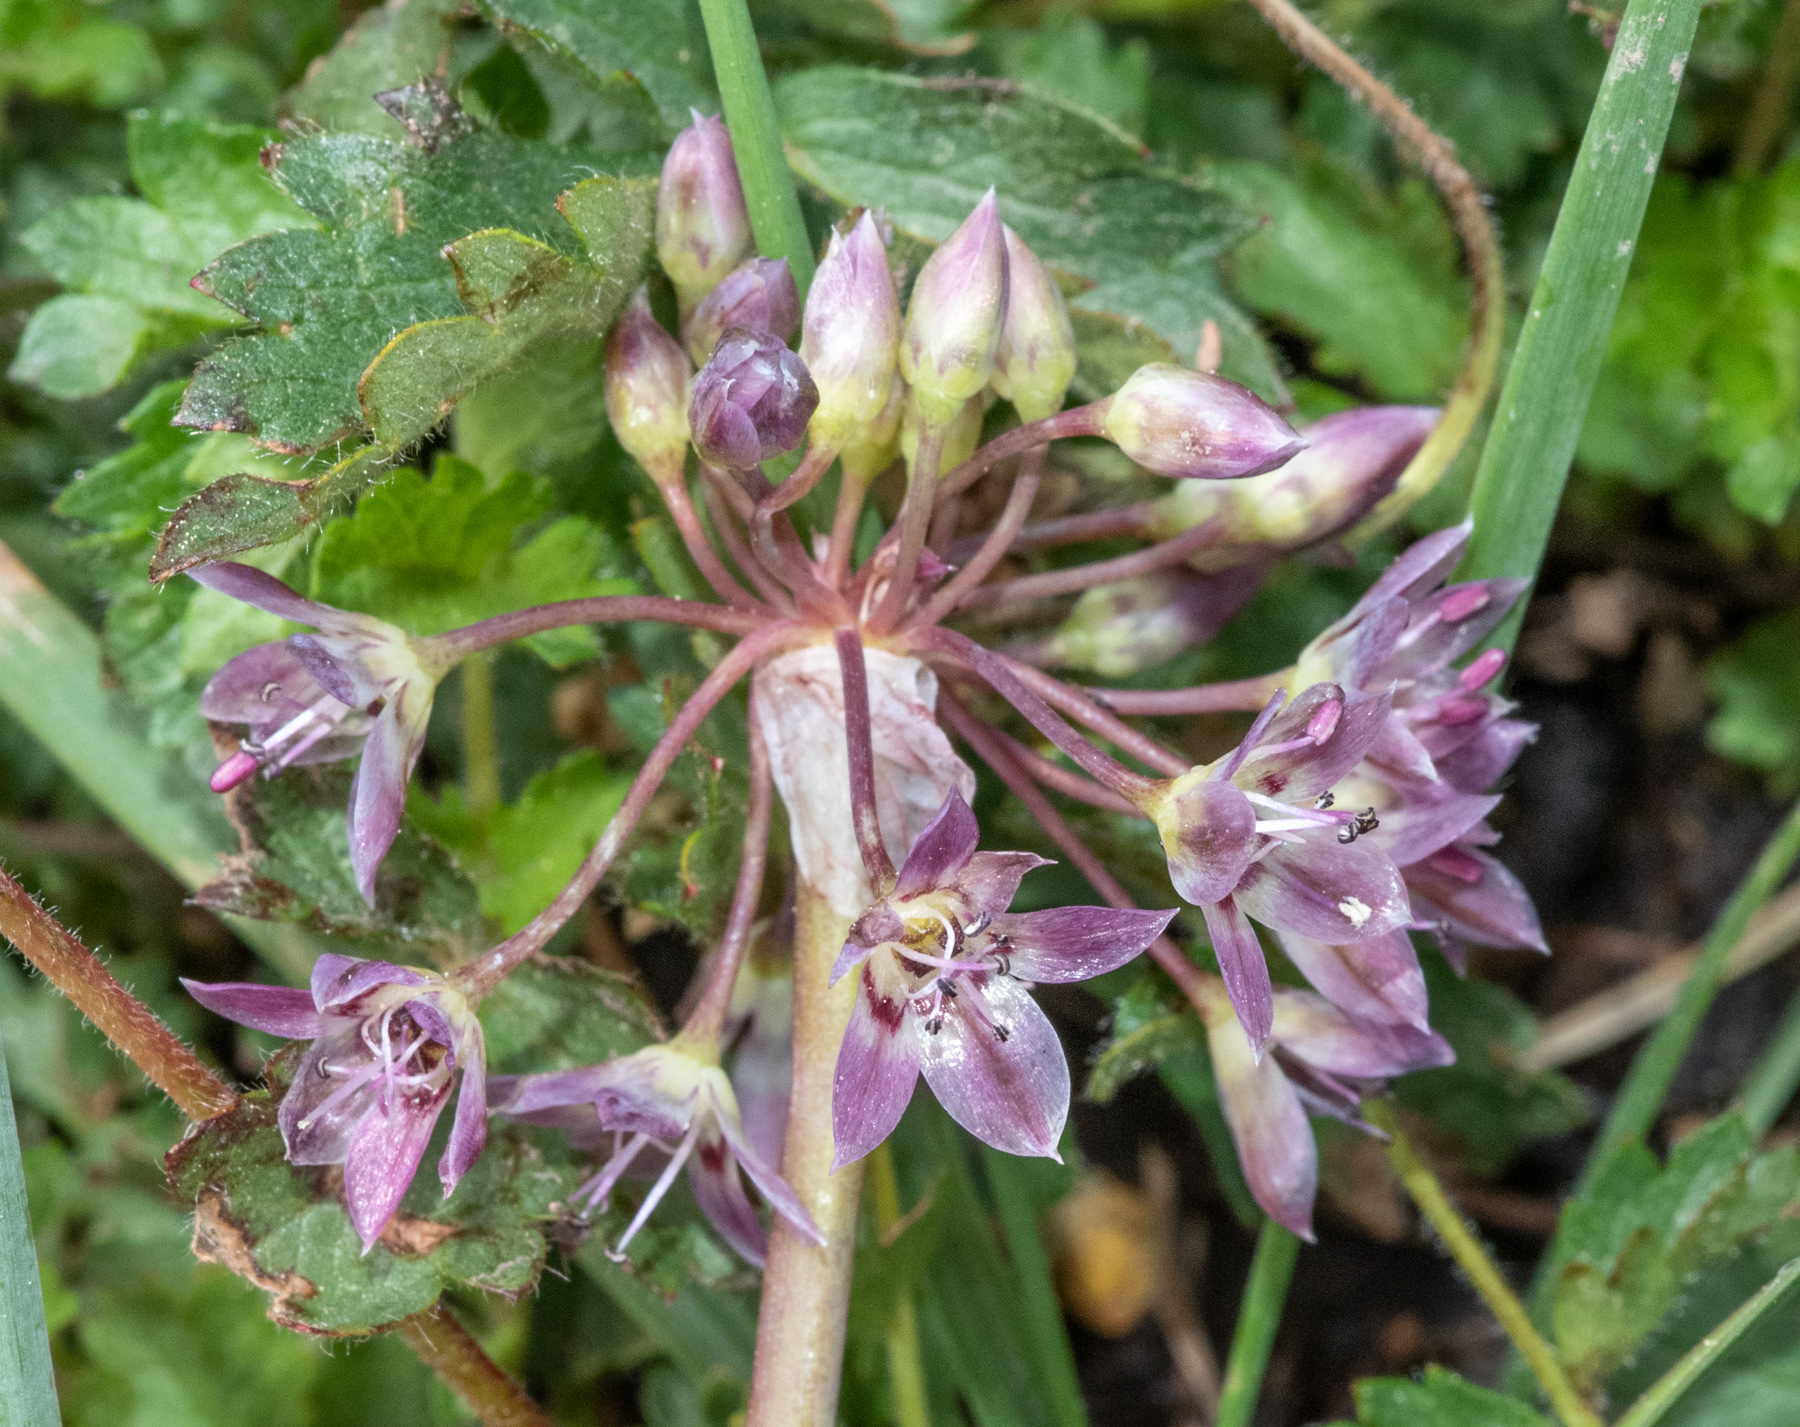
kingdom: Plantae
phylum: Tracheophyta
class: Liliopsida
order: Asparagales
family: Amaryllidaceae
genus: Allium
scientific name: Allium campanulatum
